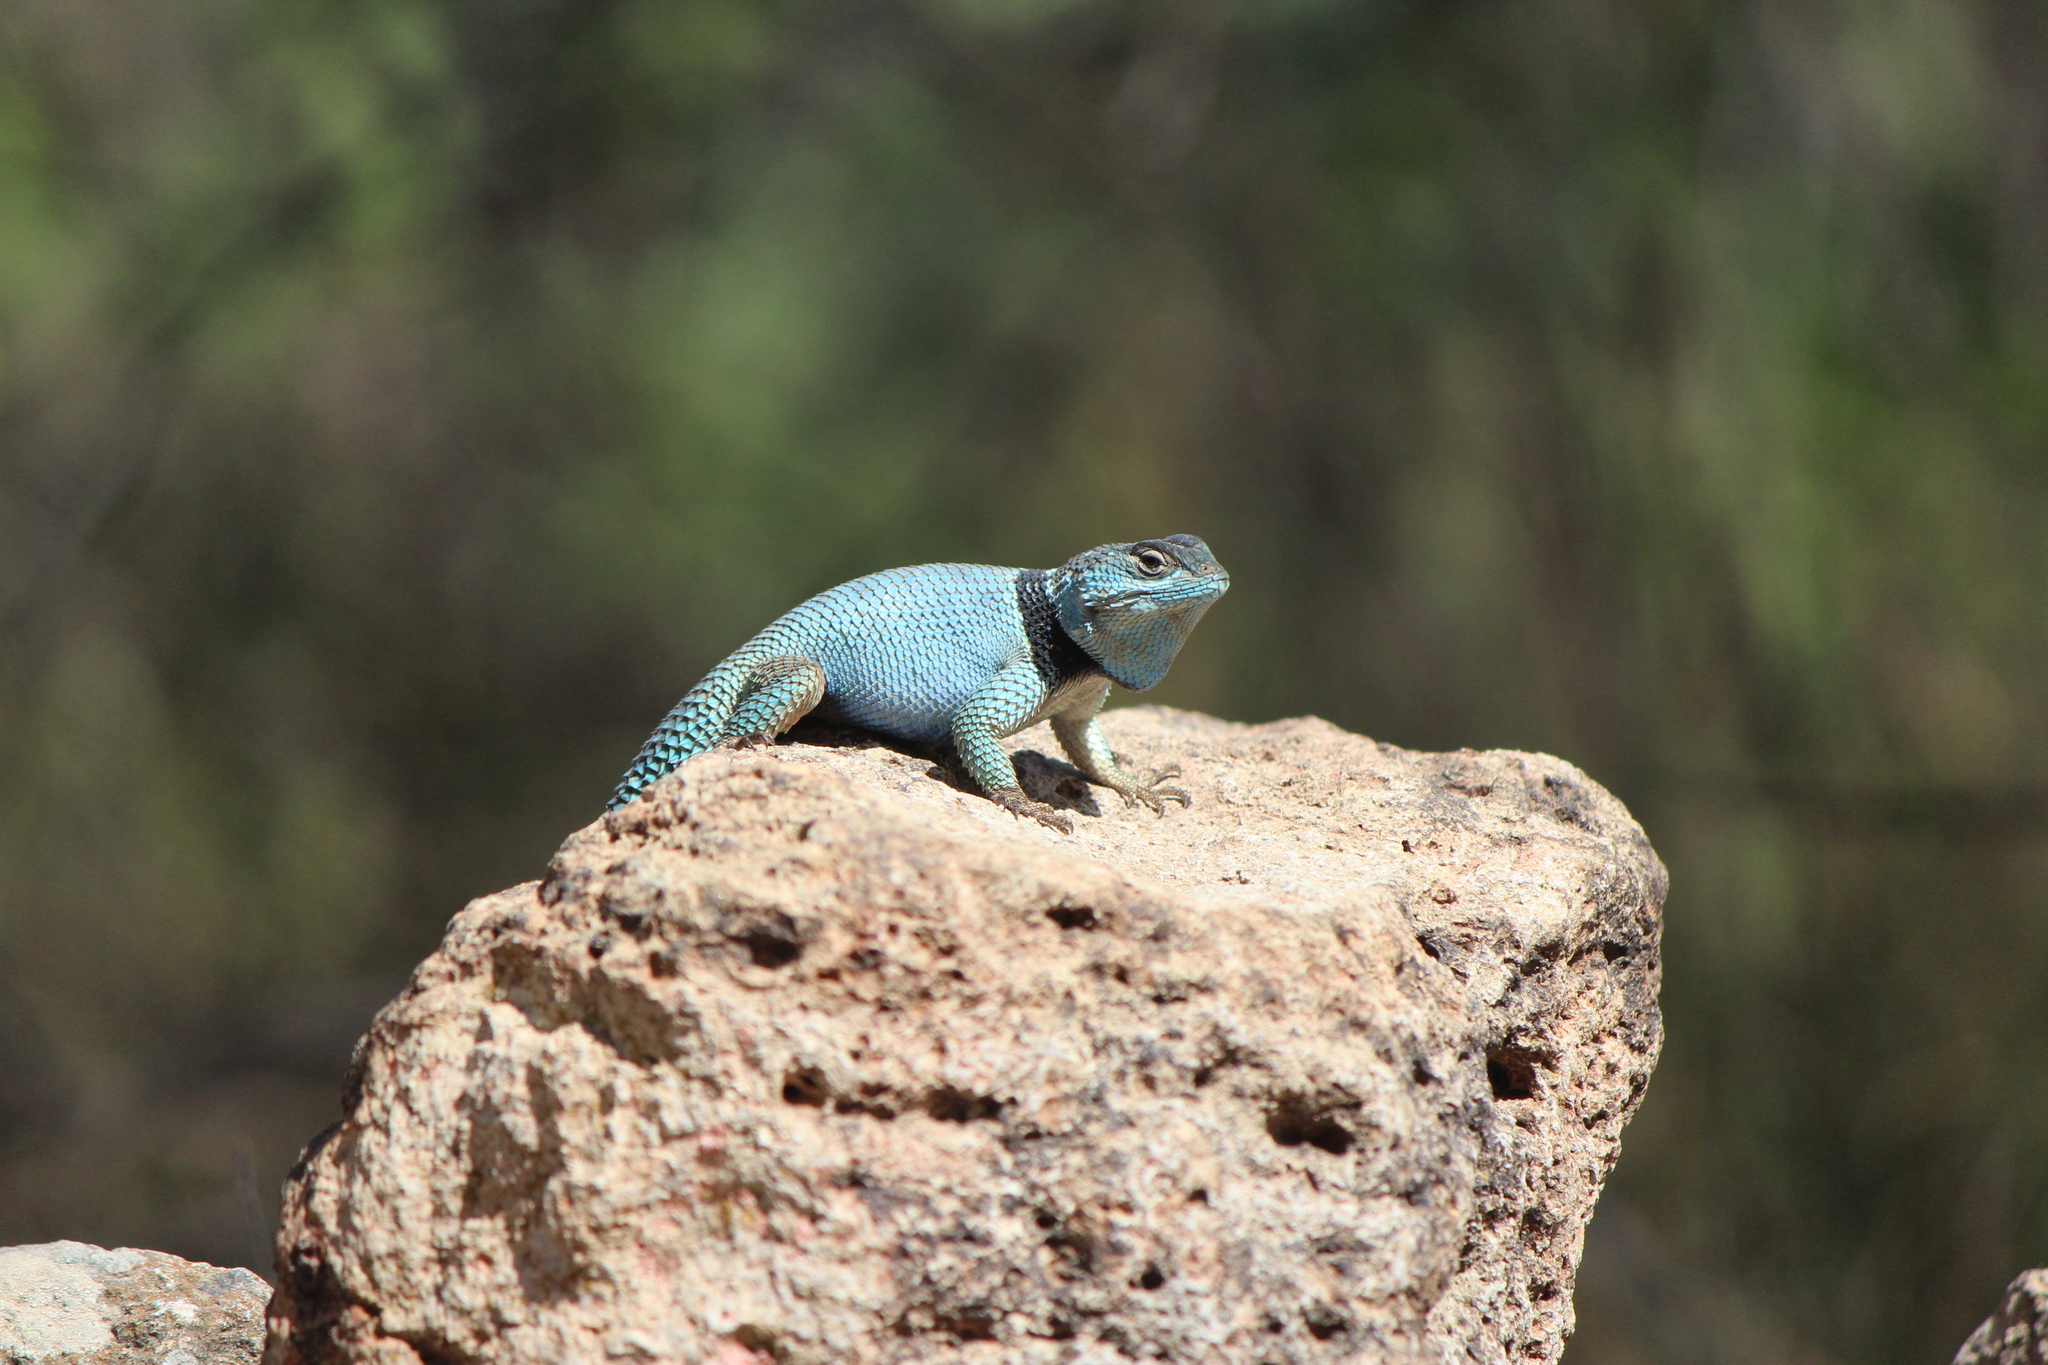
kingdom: Animalia
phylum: Chordata
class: Squamata
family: Phrynosomatidae
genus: Sceloporus
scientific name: Sceloporus minor
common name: Minor lizard
